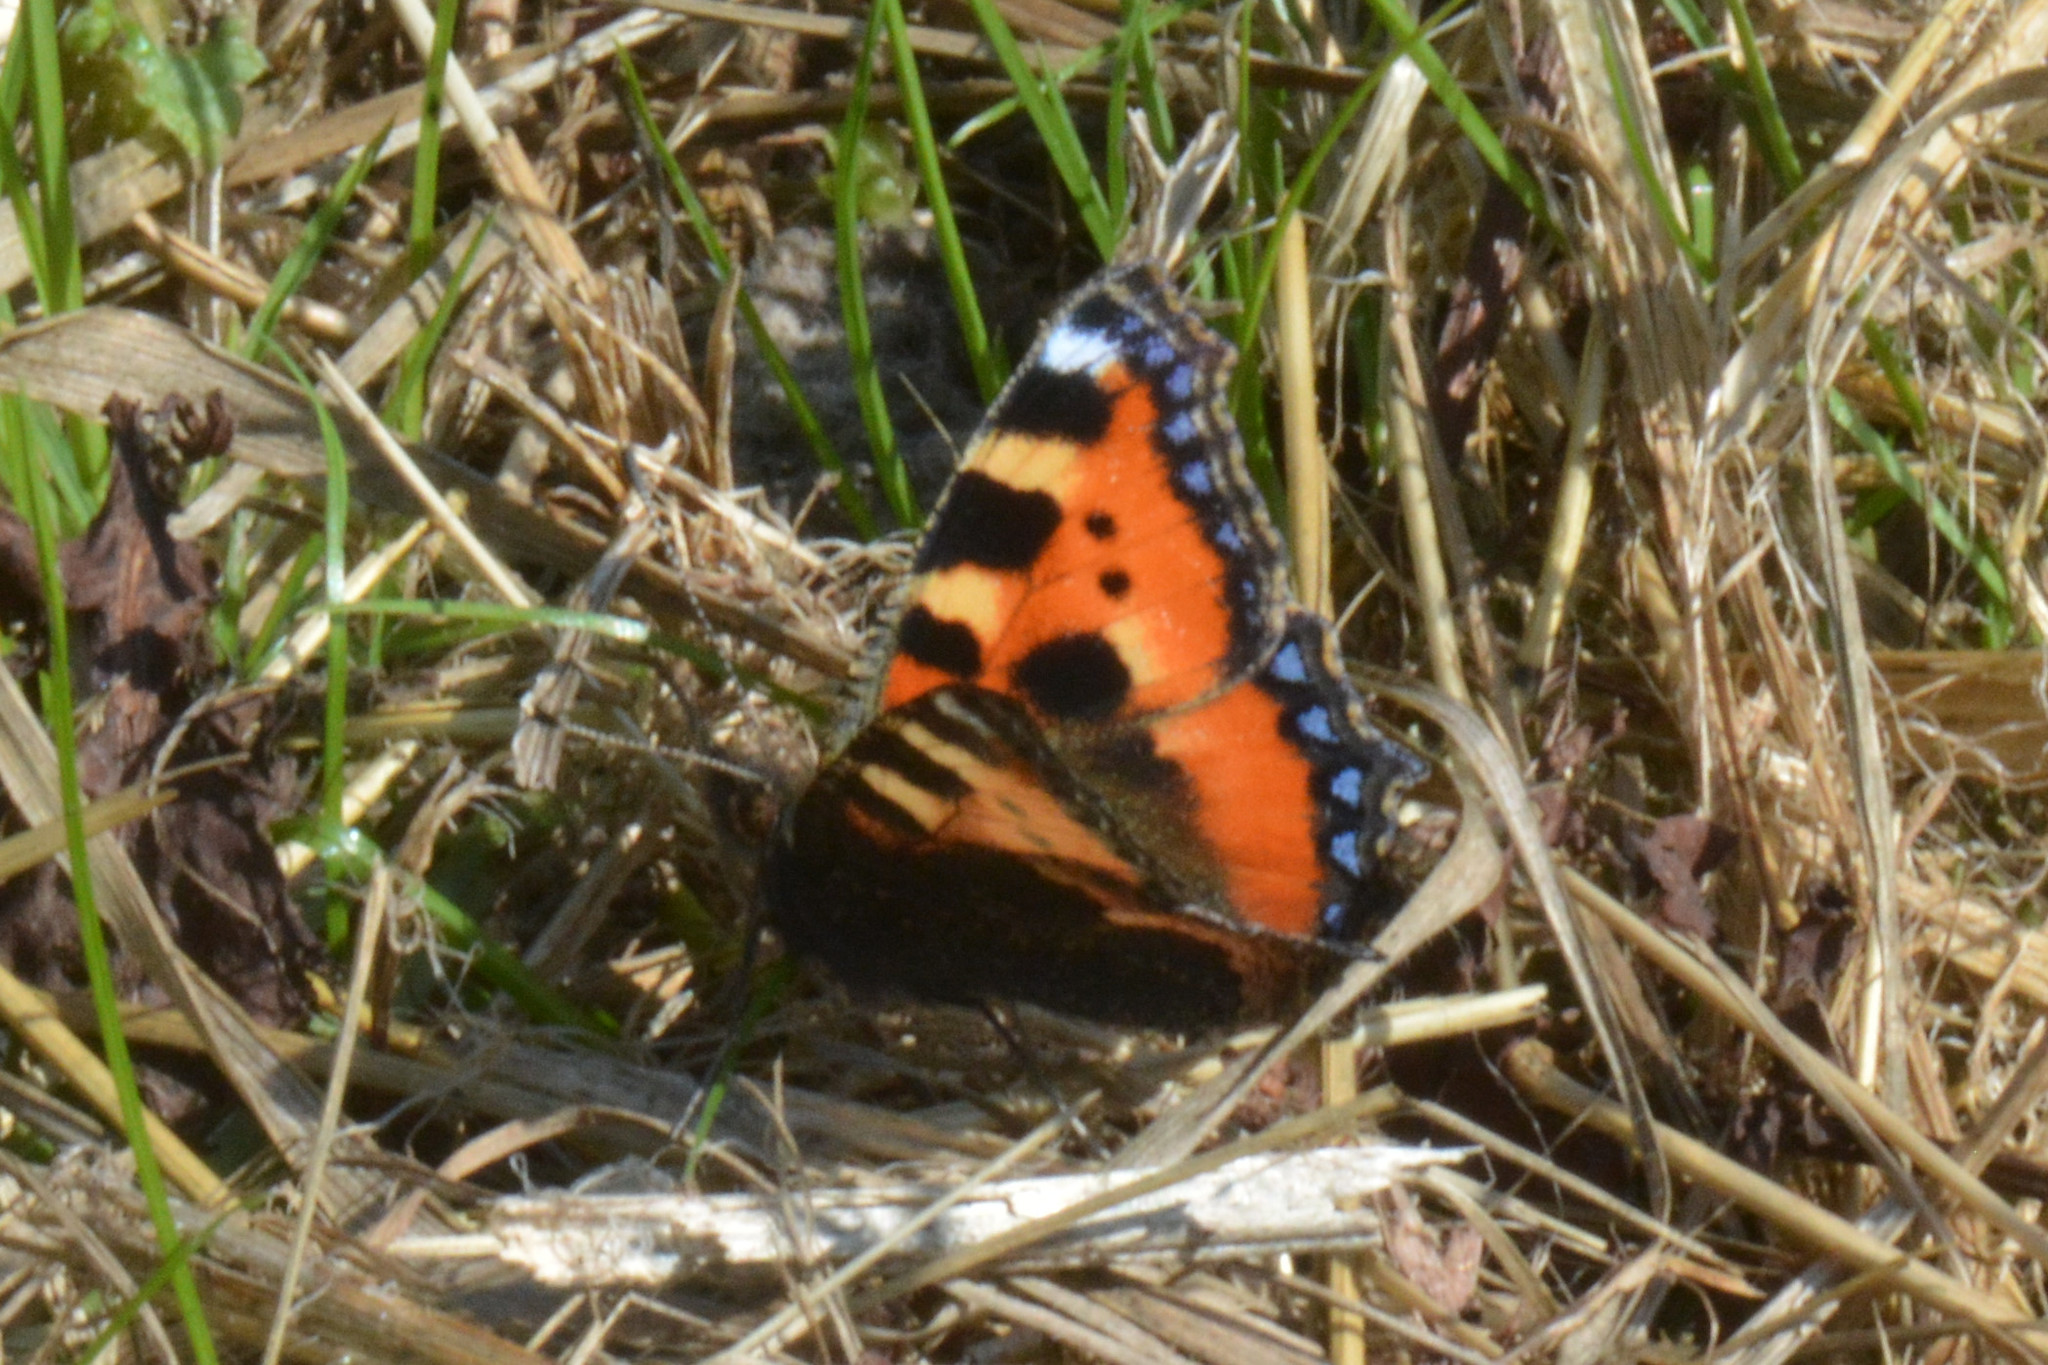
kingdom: Animalia
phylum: Arthropoda
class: Insecta
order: Lepidoptera
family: Nymphalidae
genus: Aglais
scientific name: Aglais urticae
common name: Small tortoiseshell
